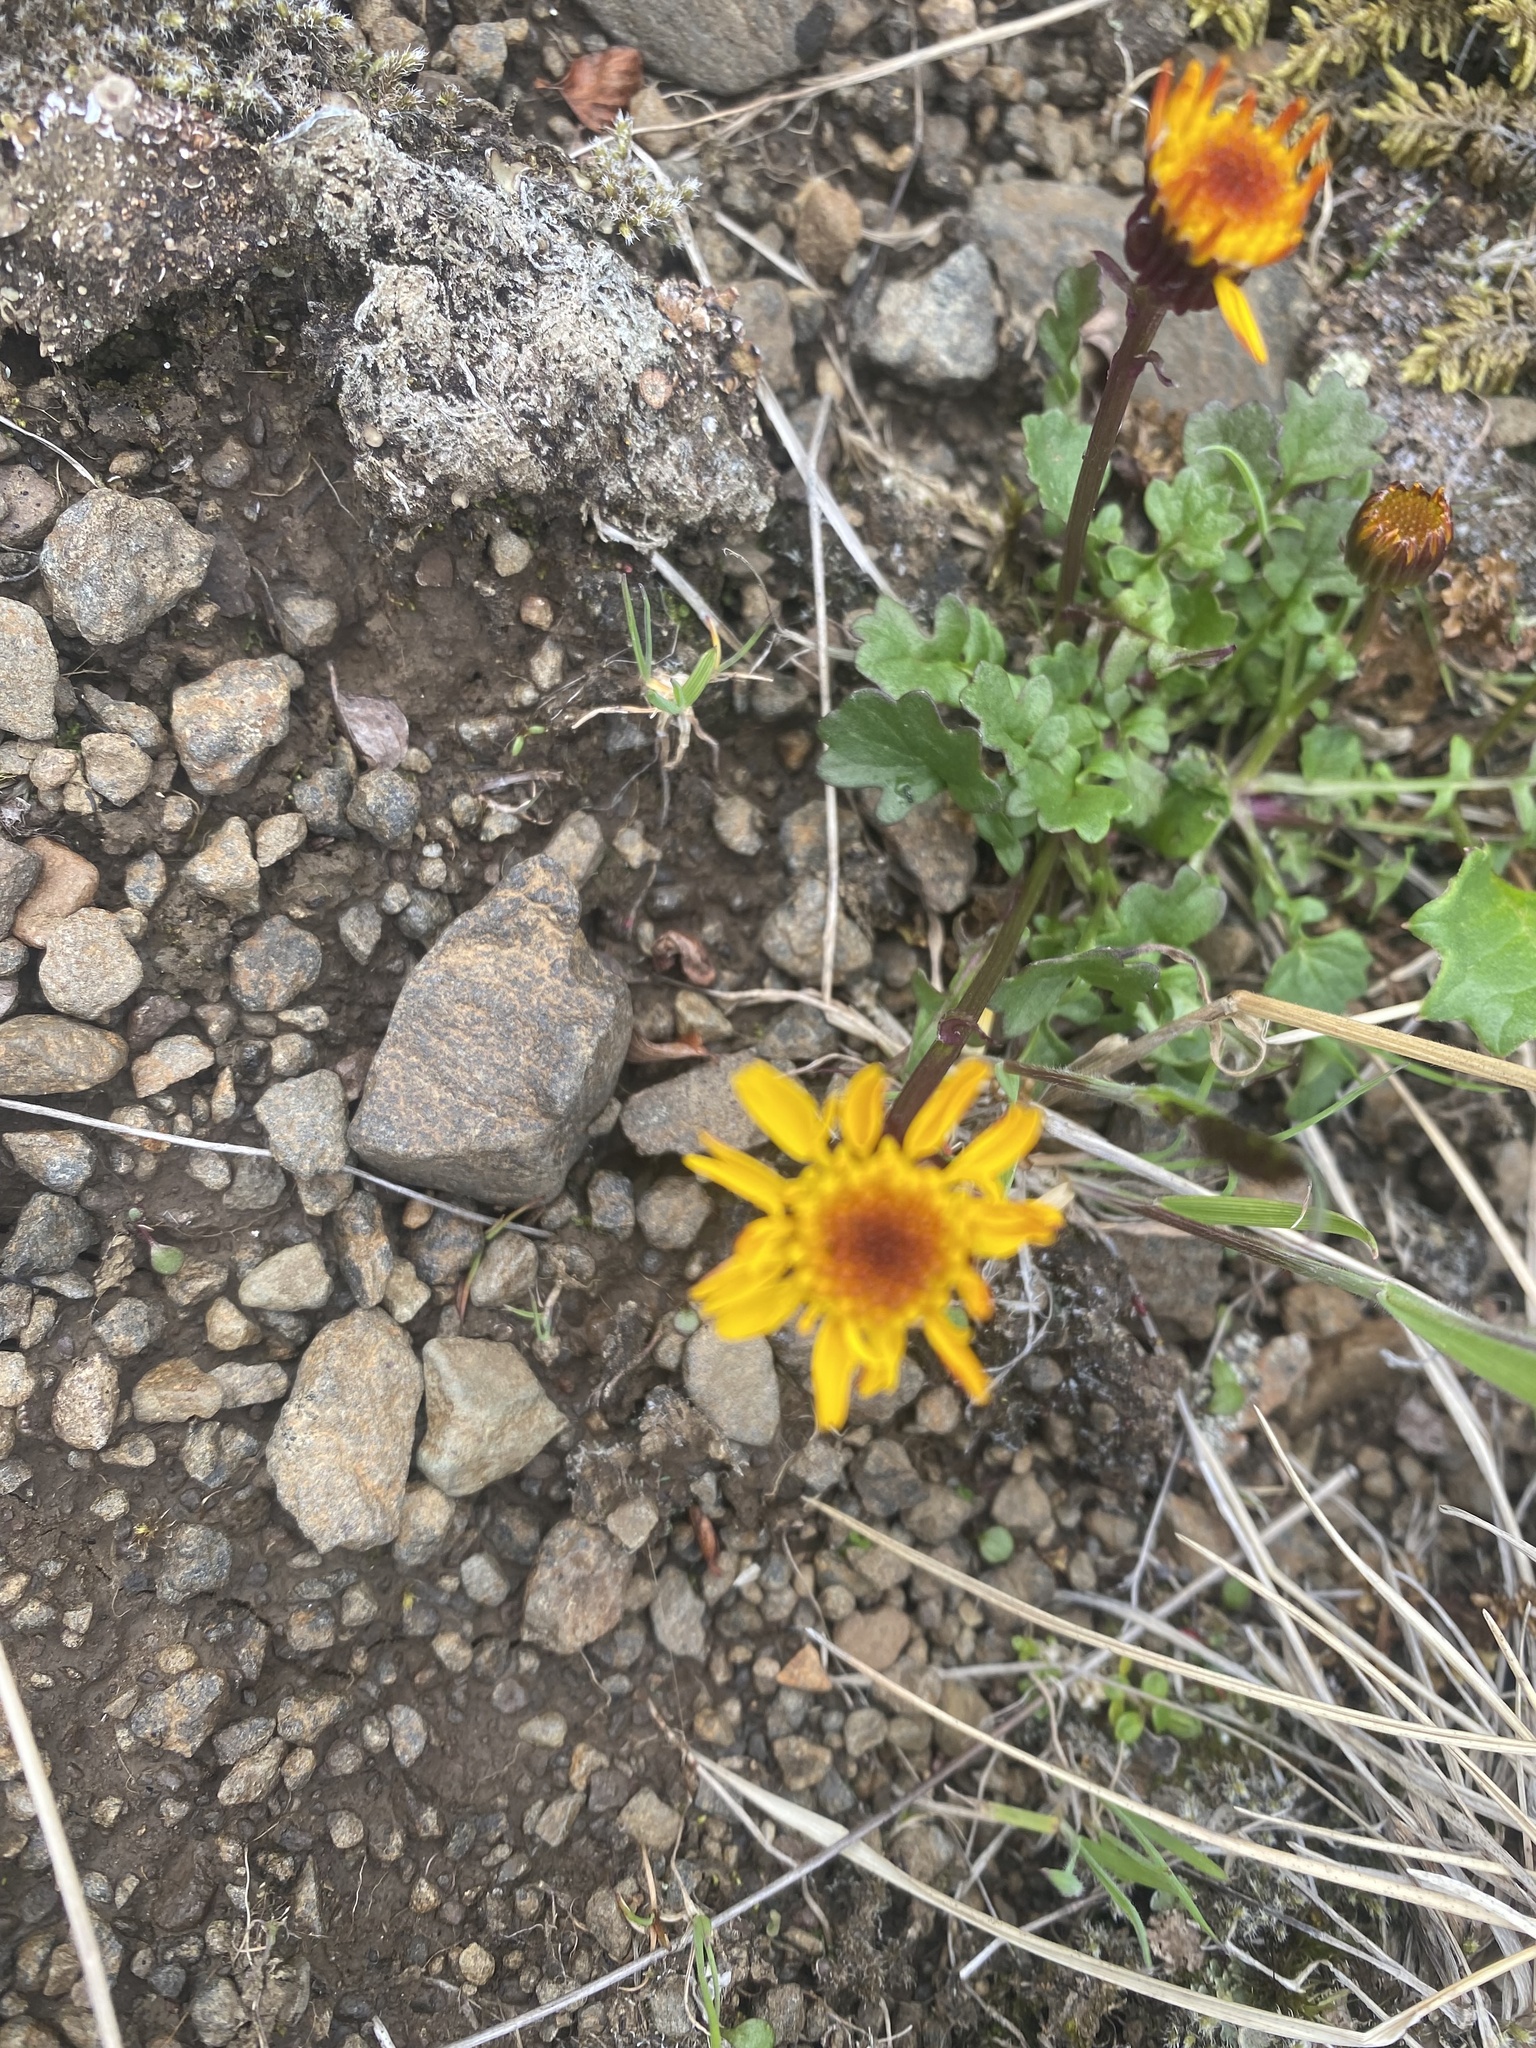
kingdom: Plantae
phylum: Tracheophyta
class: Magnoliopsida
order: Asterales
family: Asteraceae
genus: Packera
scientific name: Packera heterophylla
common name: Arctic butterweed
